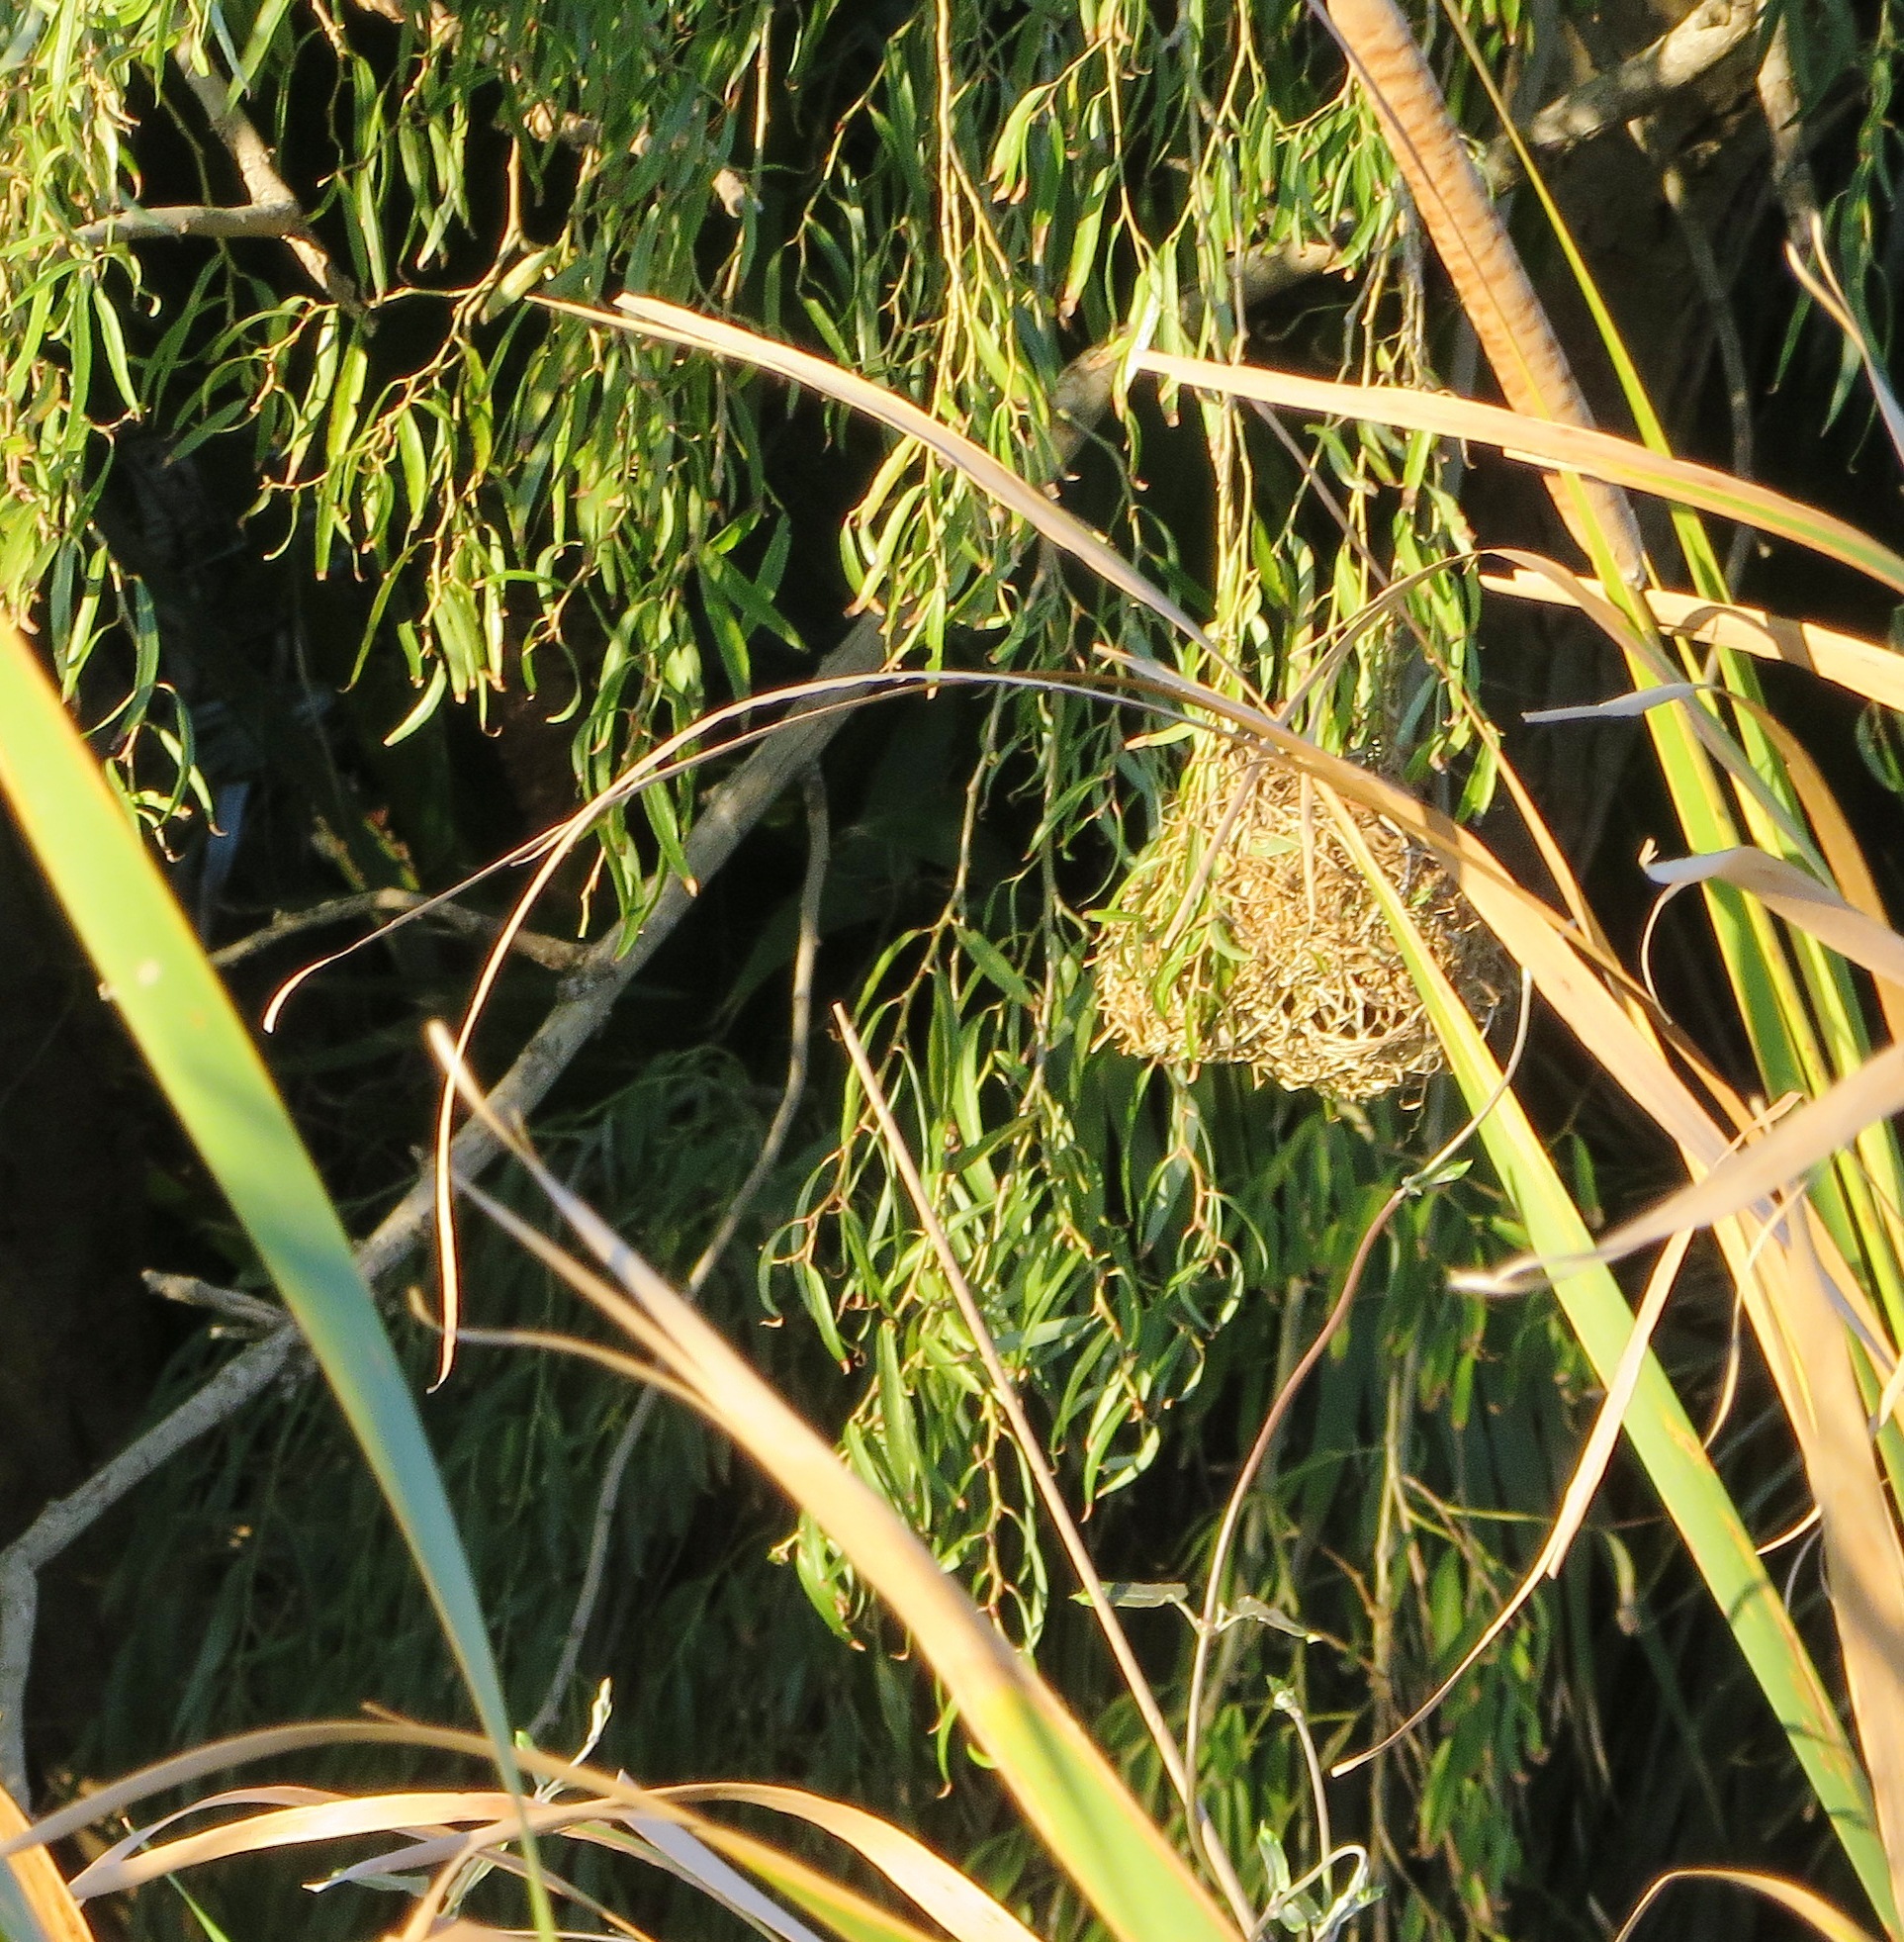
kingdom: Animalia
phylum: Chordata
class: Aves
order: Passeriformes
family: Ploceidae
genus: Ploceus
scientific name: Ploceus capensis
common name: Cape weaver
